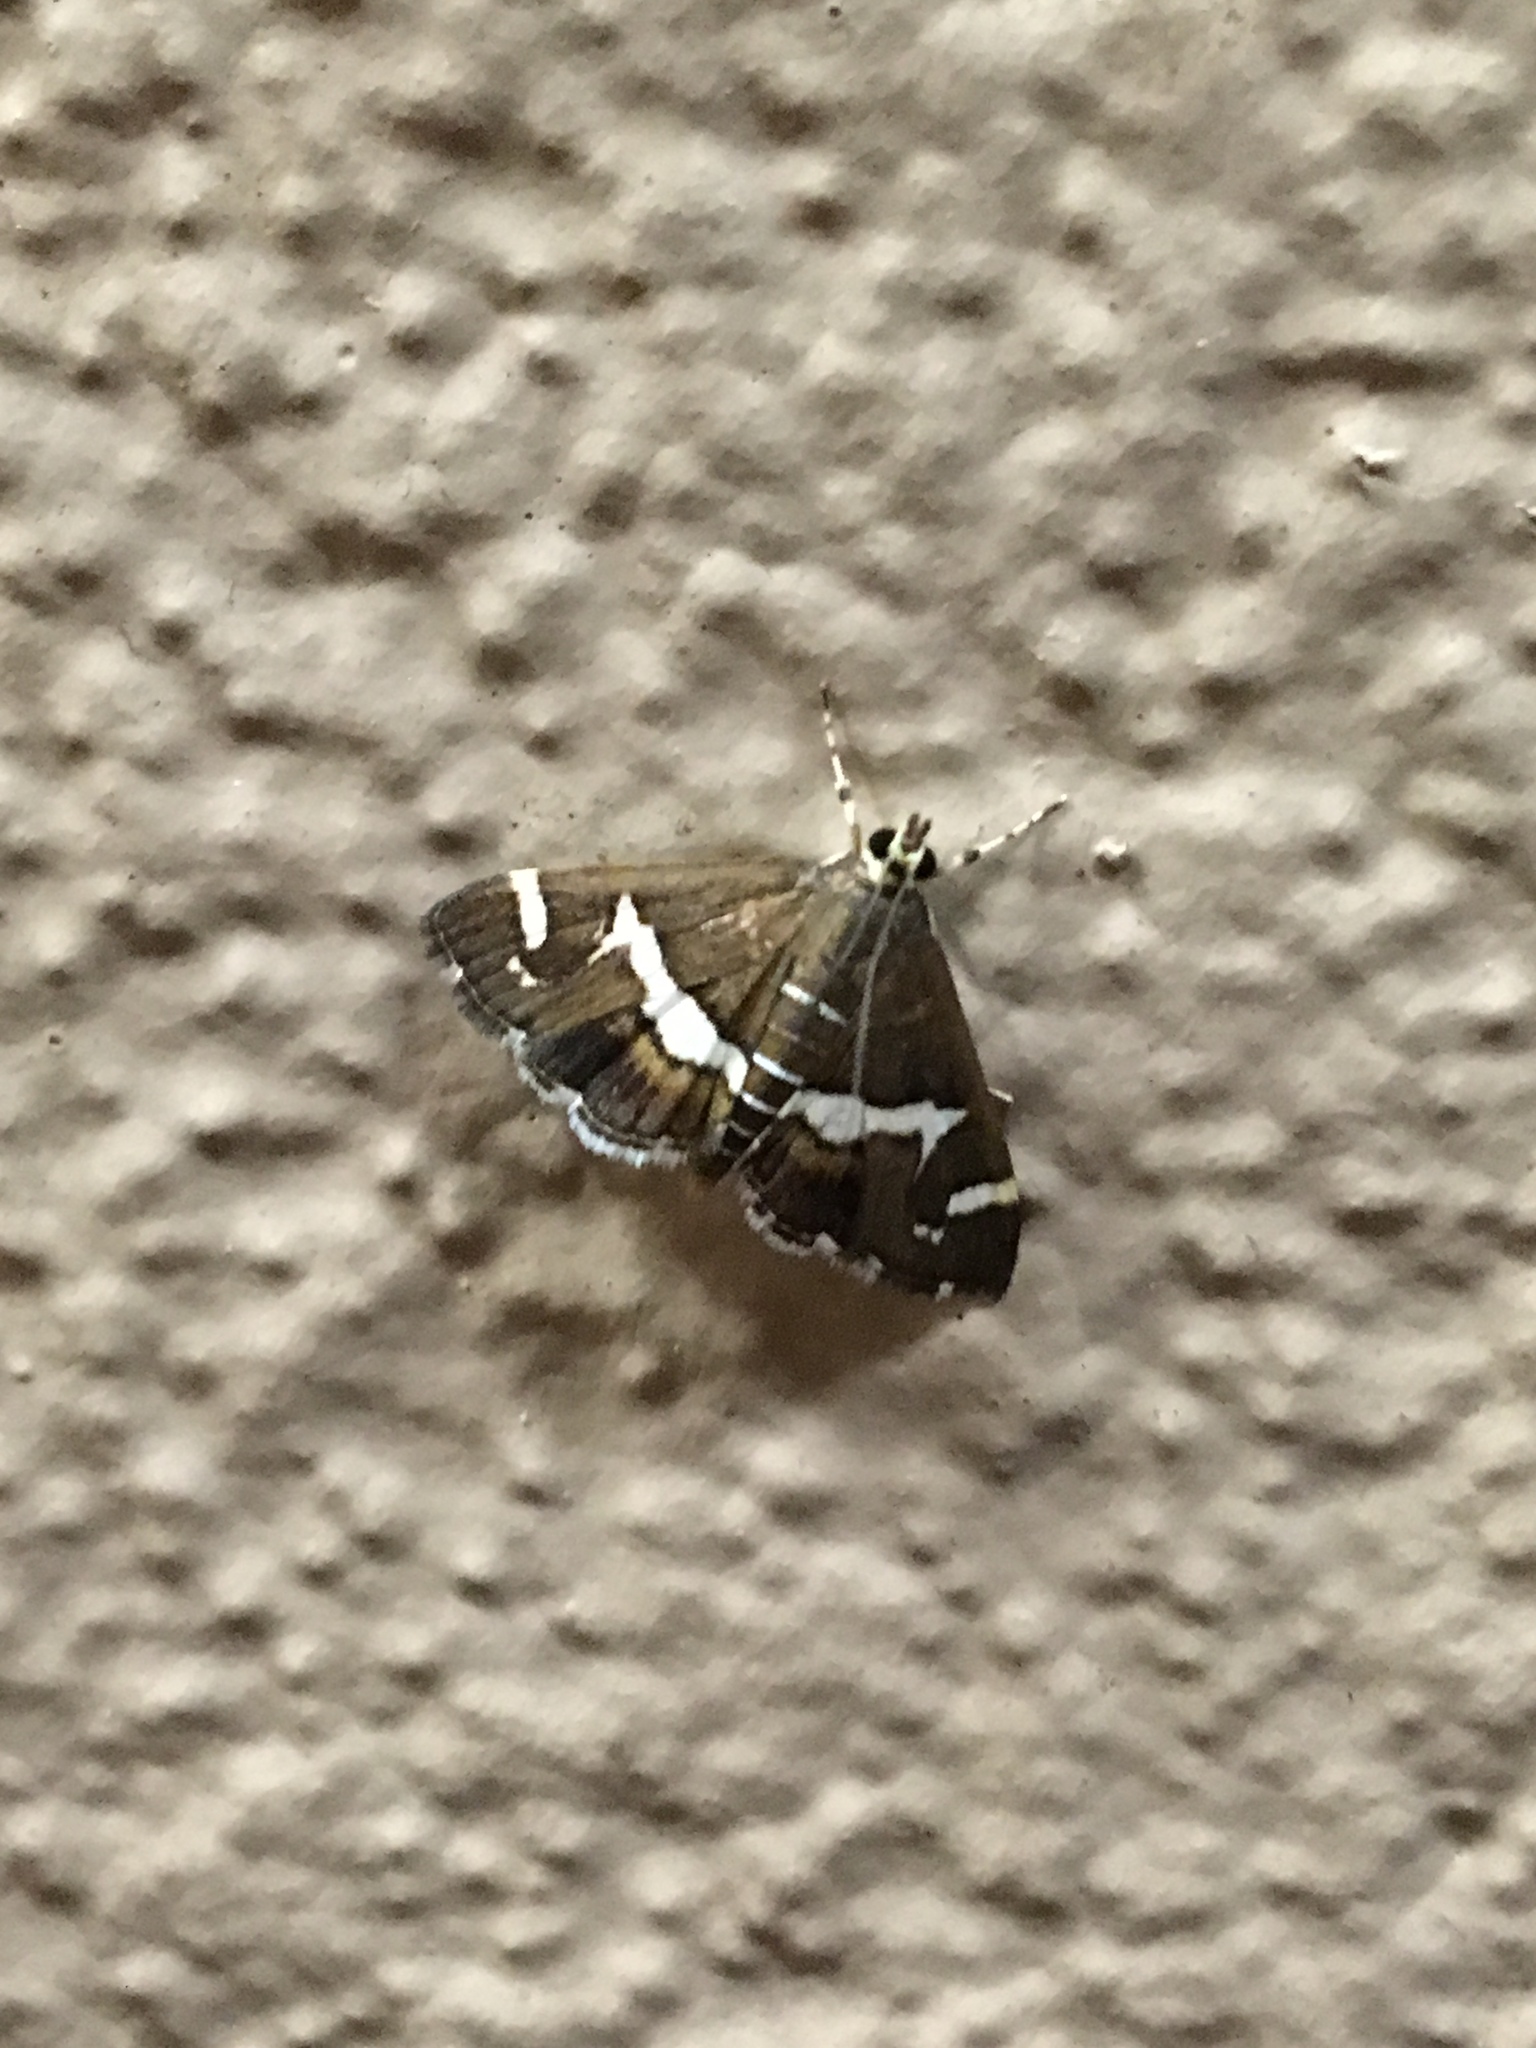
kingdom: Animalia
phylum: Arthropoda
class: Insecta
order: Lepidoptera
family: Crambidae
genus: Spoladea
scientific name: Spoladea recurvalis
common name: Beet webworm moth
